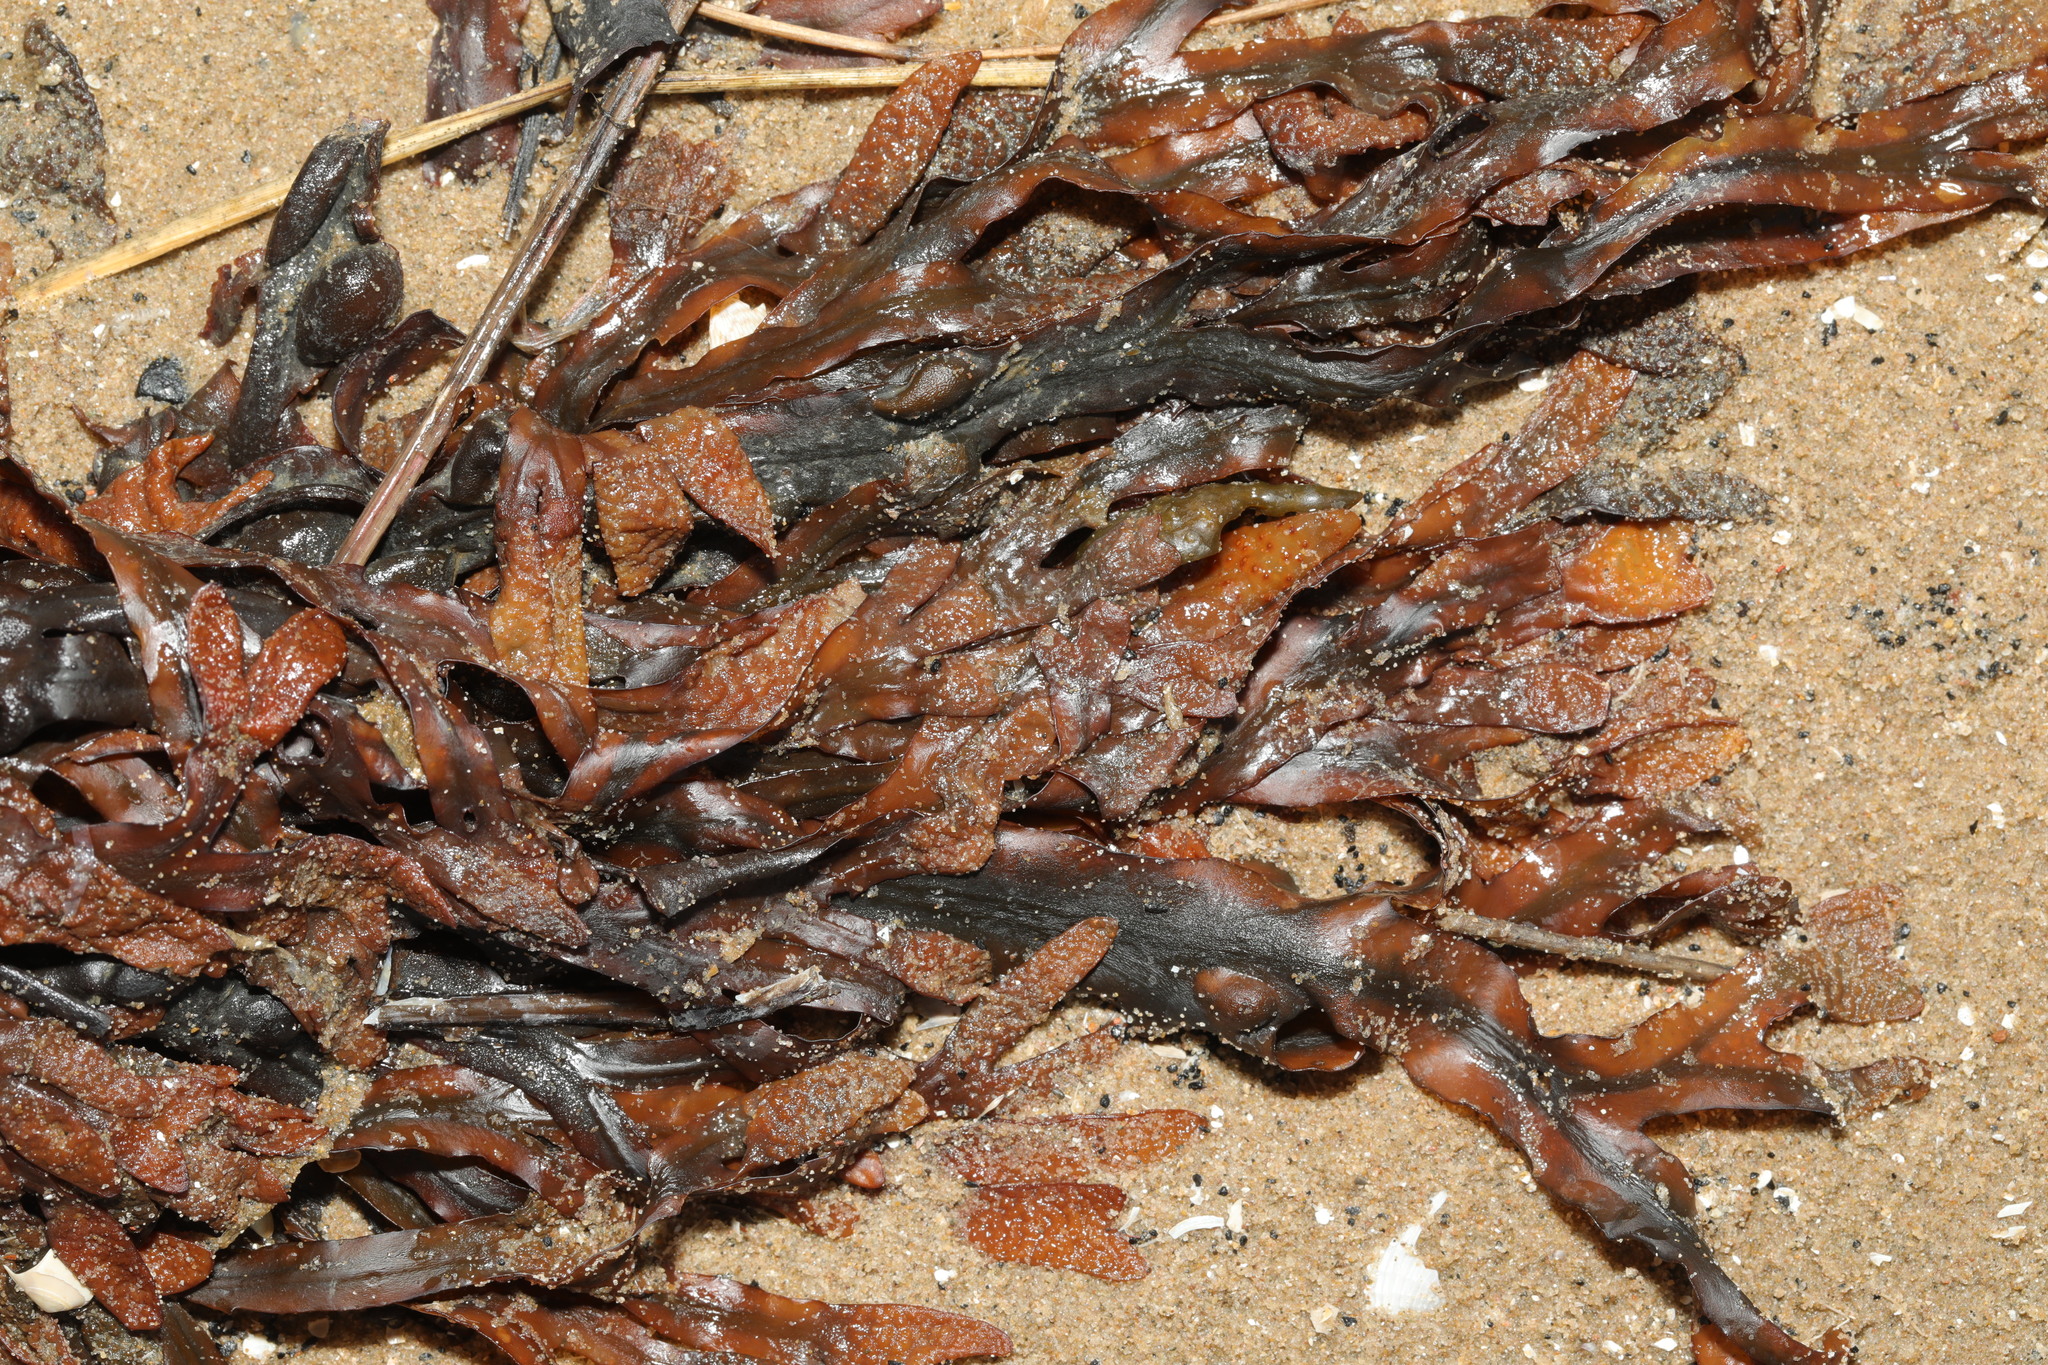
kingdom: Chromista
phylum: Ochrophyta
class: Phaeophyceae
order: Fucales
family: Fucaceae
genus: Fucus
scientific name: Fucus vesiculosus
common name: Bladder wrack
